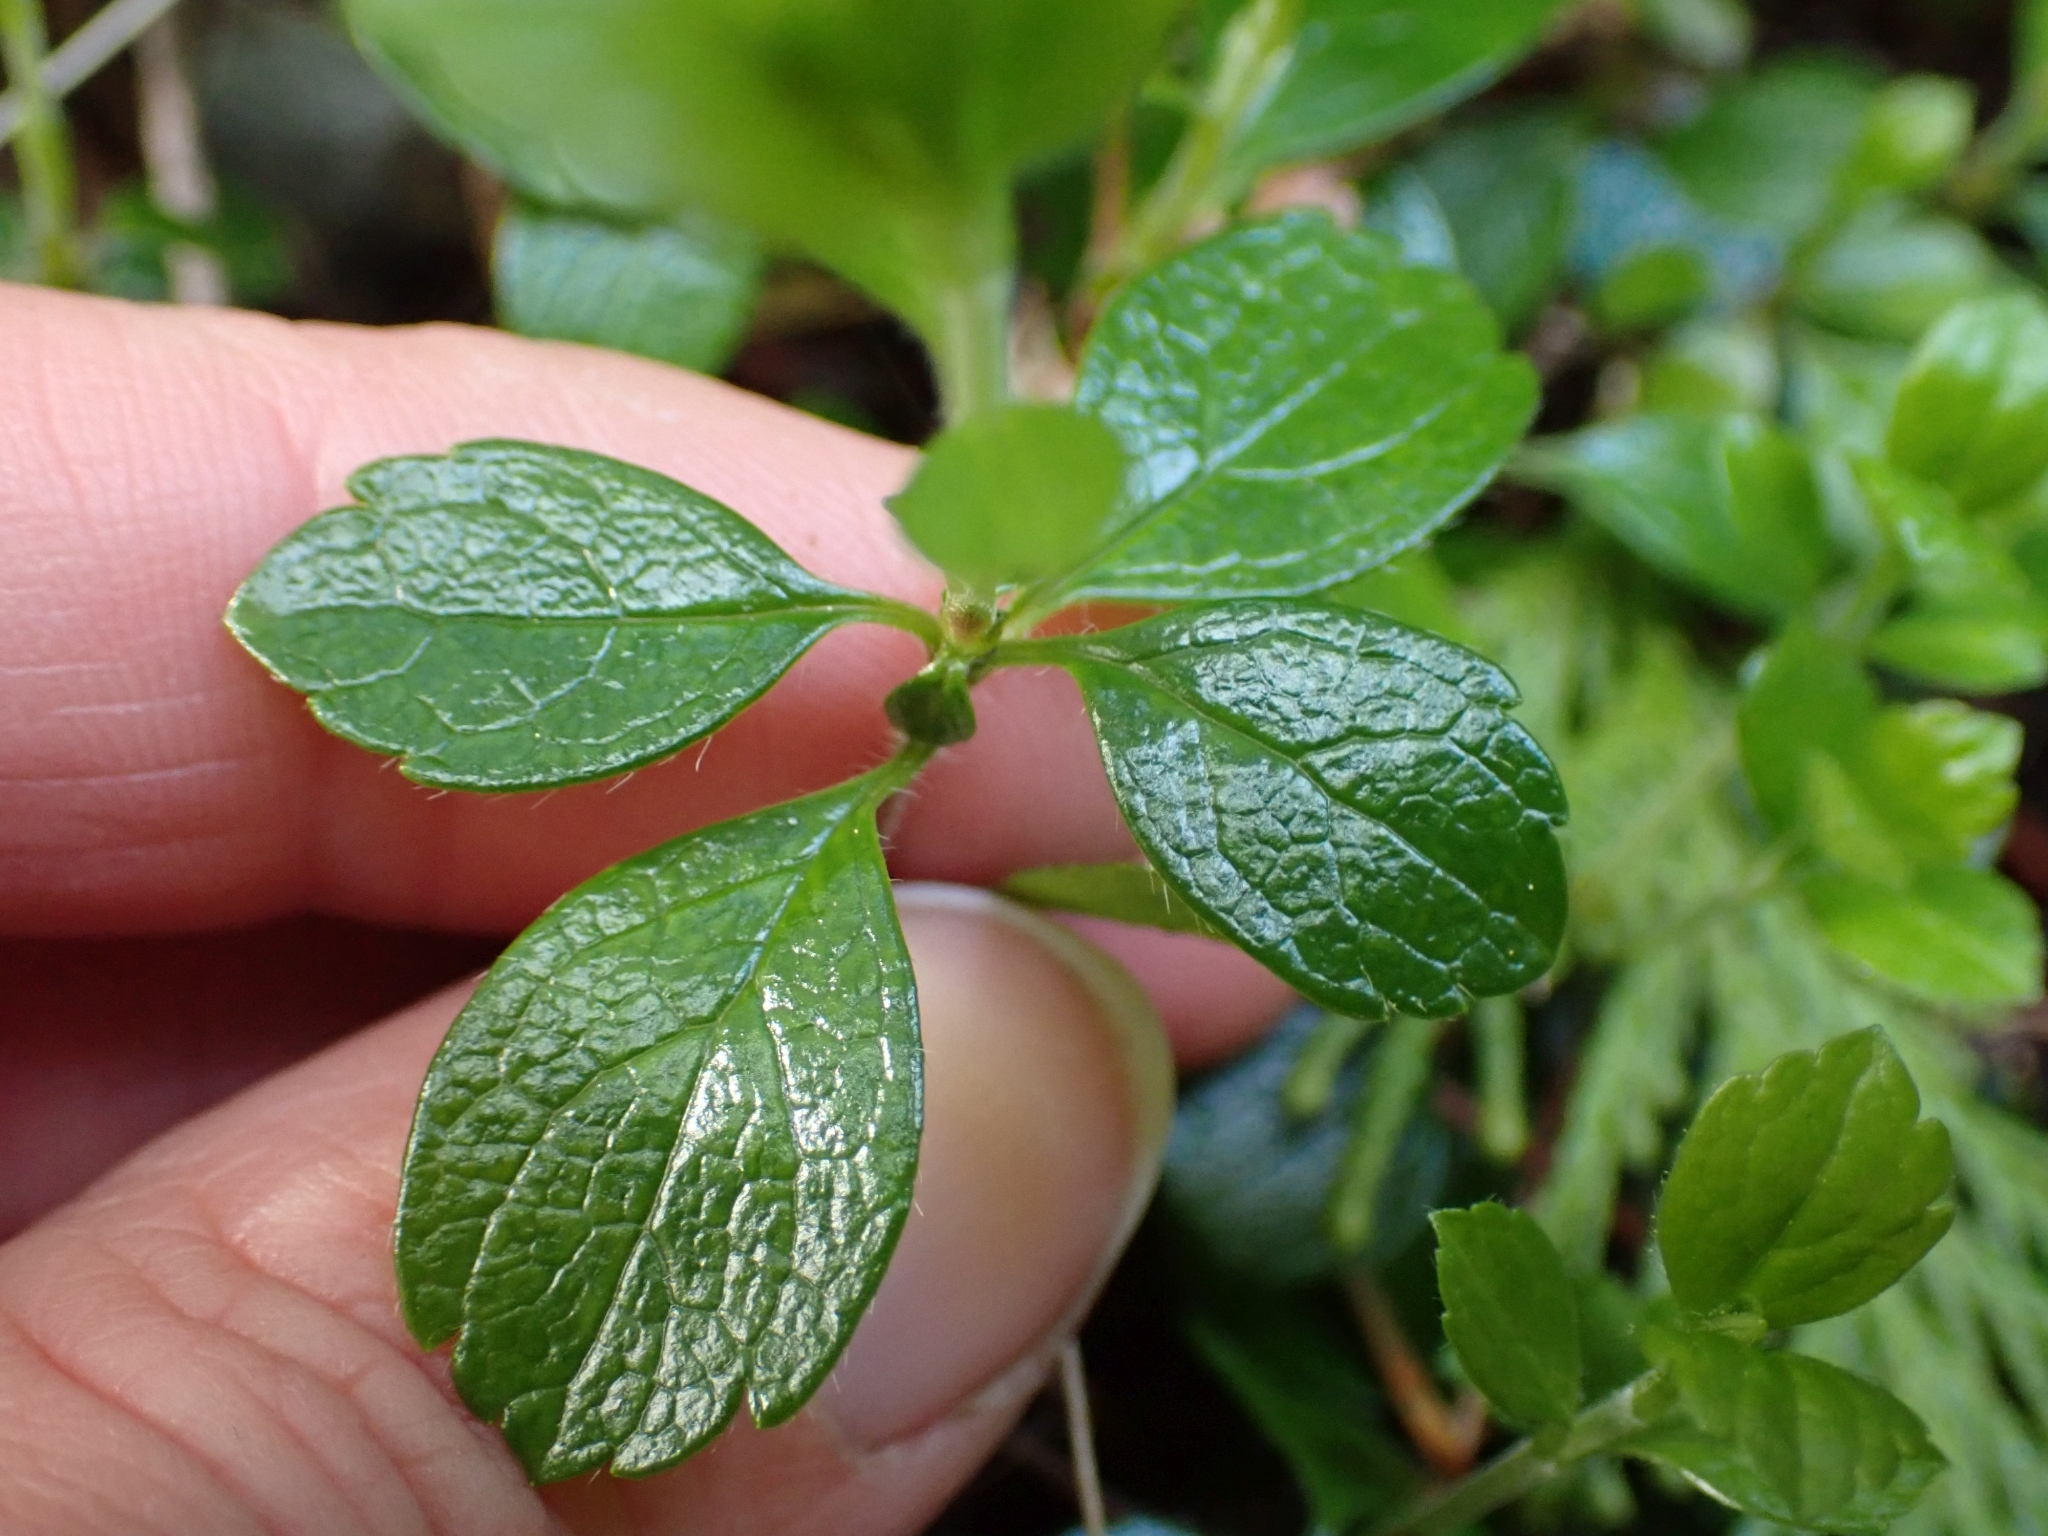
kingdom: Plantae
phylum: Tracheophyta
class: Magnoliopsida
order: Dipsacales
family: Caprifoliaceae
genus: Linnaea
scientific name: Linnaea borealis
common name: Twinflower
